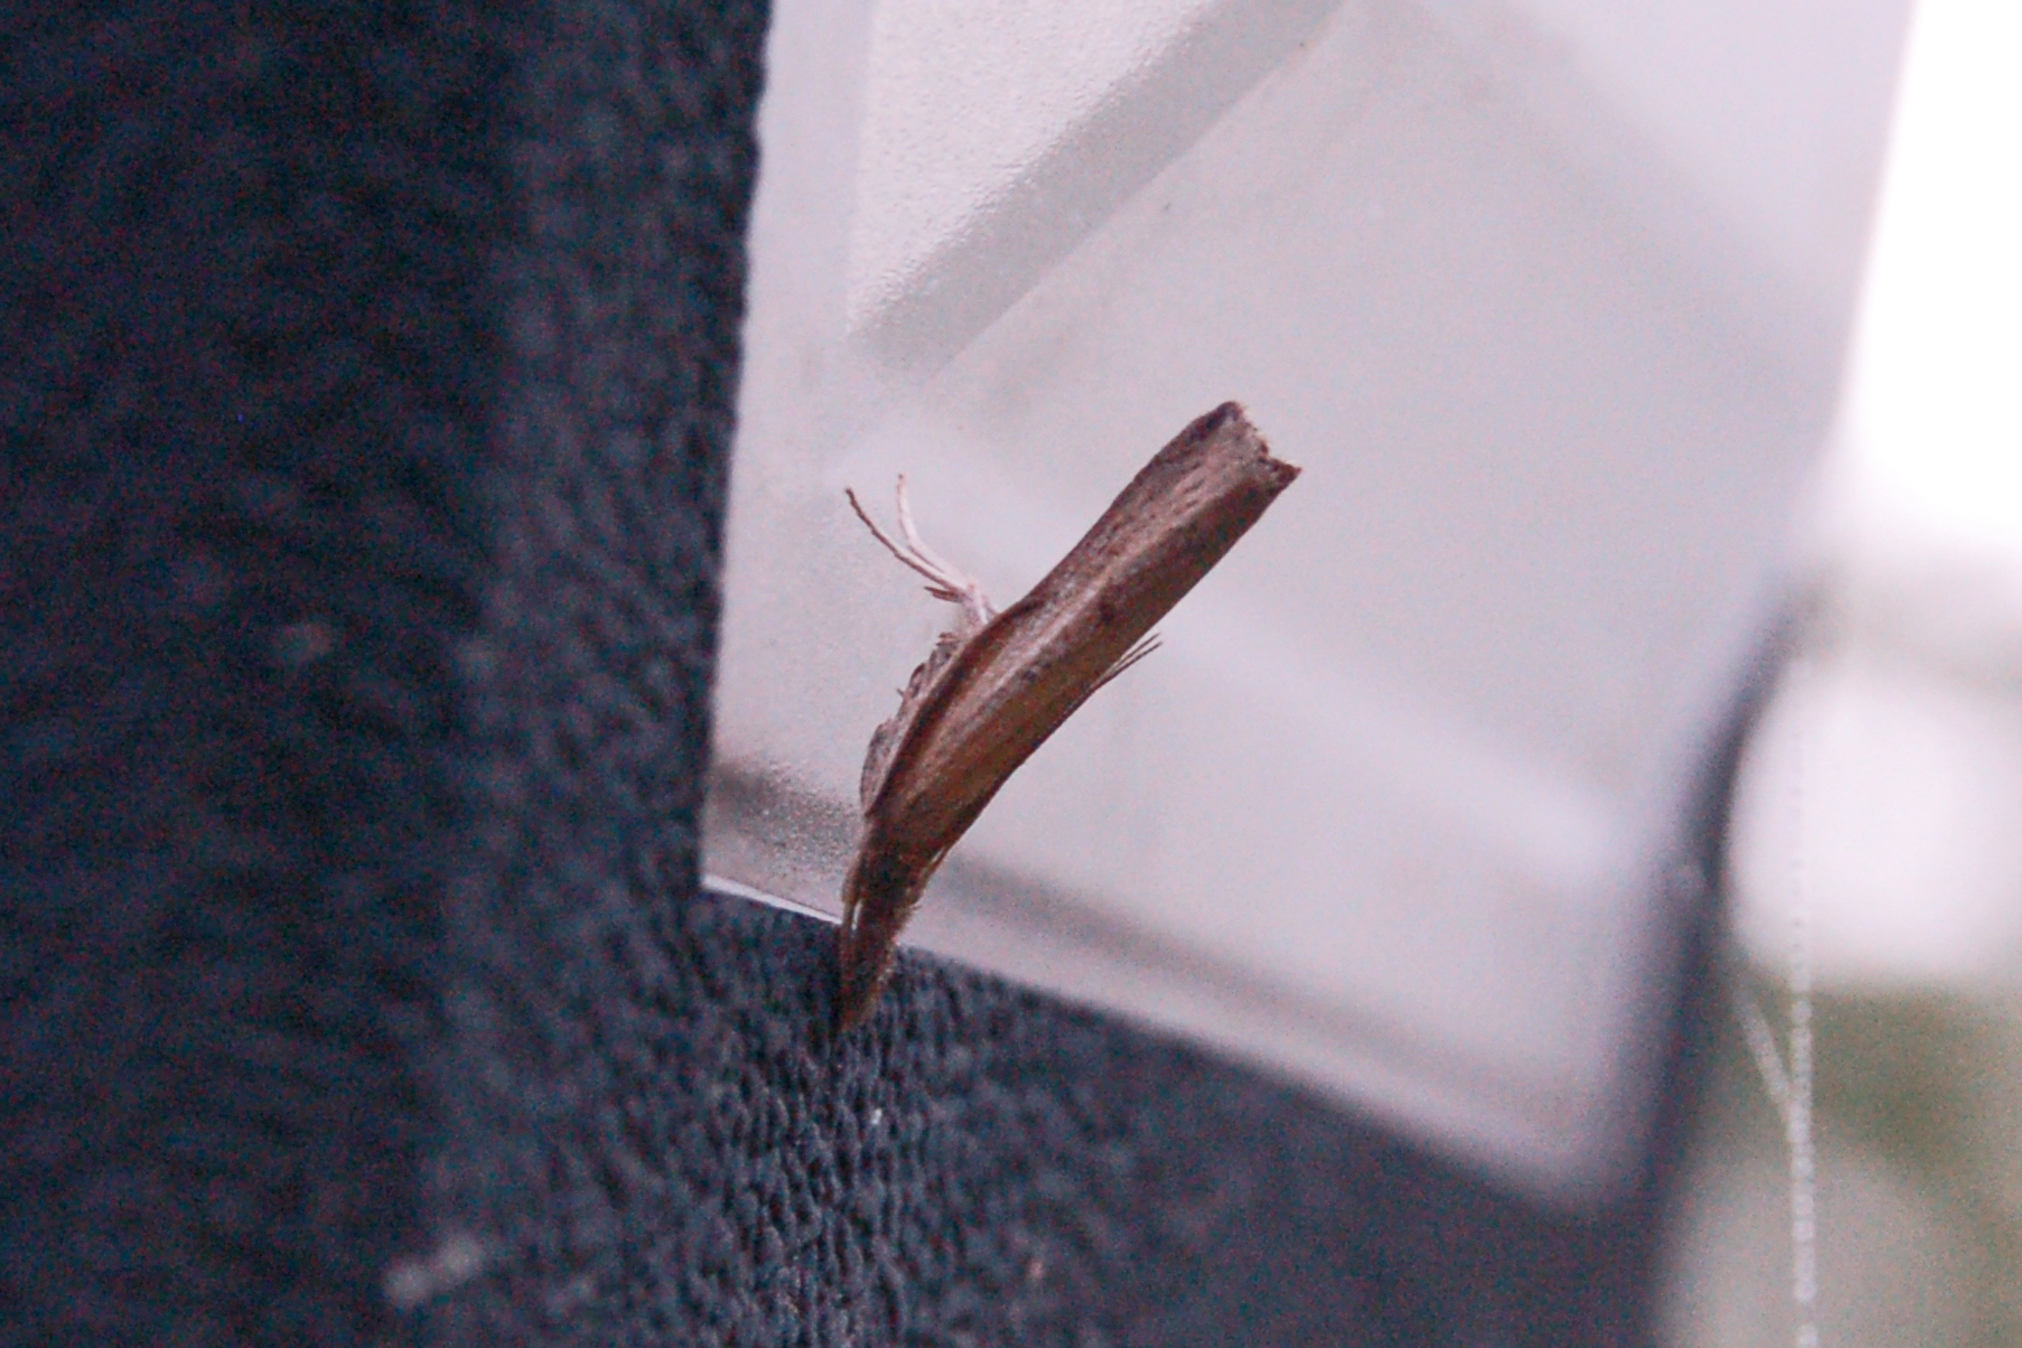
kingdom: Animalia
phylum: Arthropoda
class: Insecta
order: Lepidoptera
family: Crambidae
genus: Fissicrambus
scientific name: Fissicrambus mutabilis
